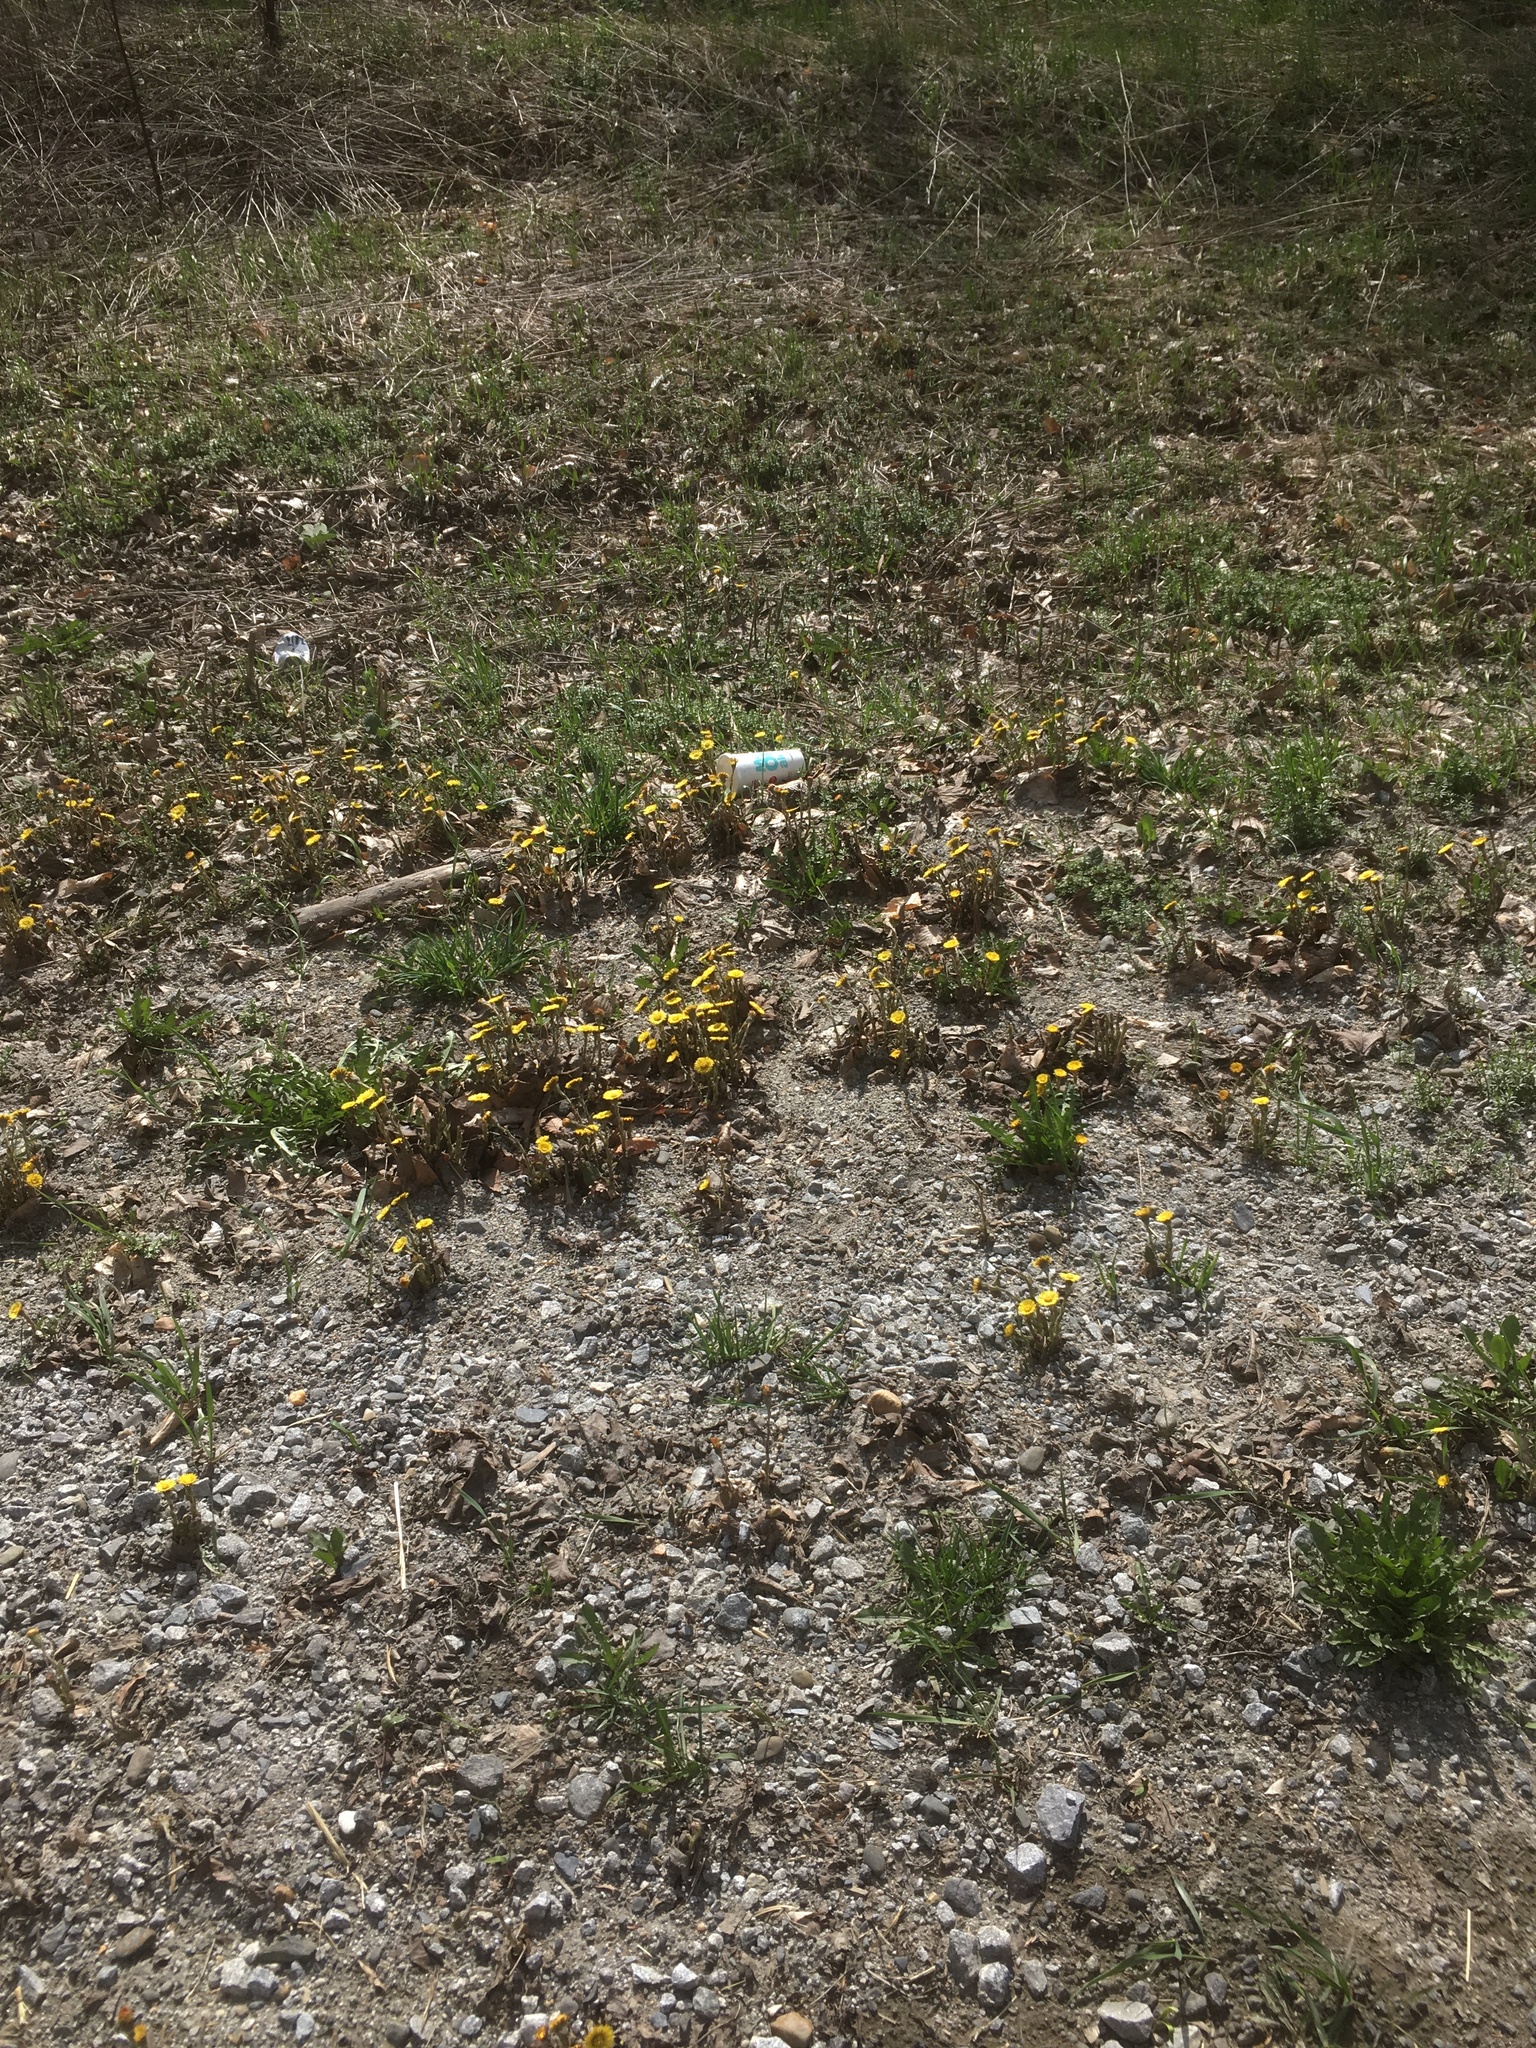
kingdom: Plantae
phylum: Tracheophyta
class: Magnoliopsida
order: Asterales
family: Asteraceae
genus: Tussilago
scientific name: Tussilago farfara
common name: Coltsfoot
